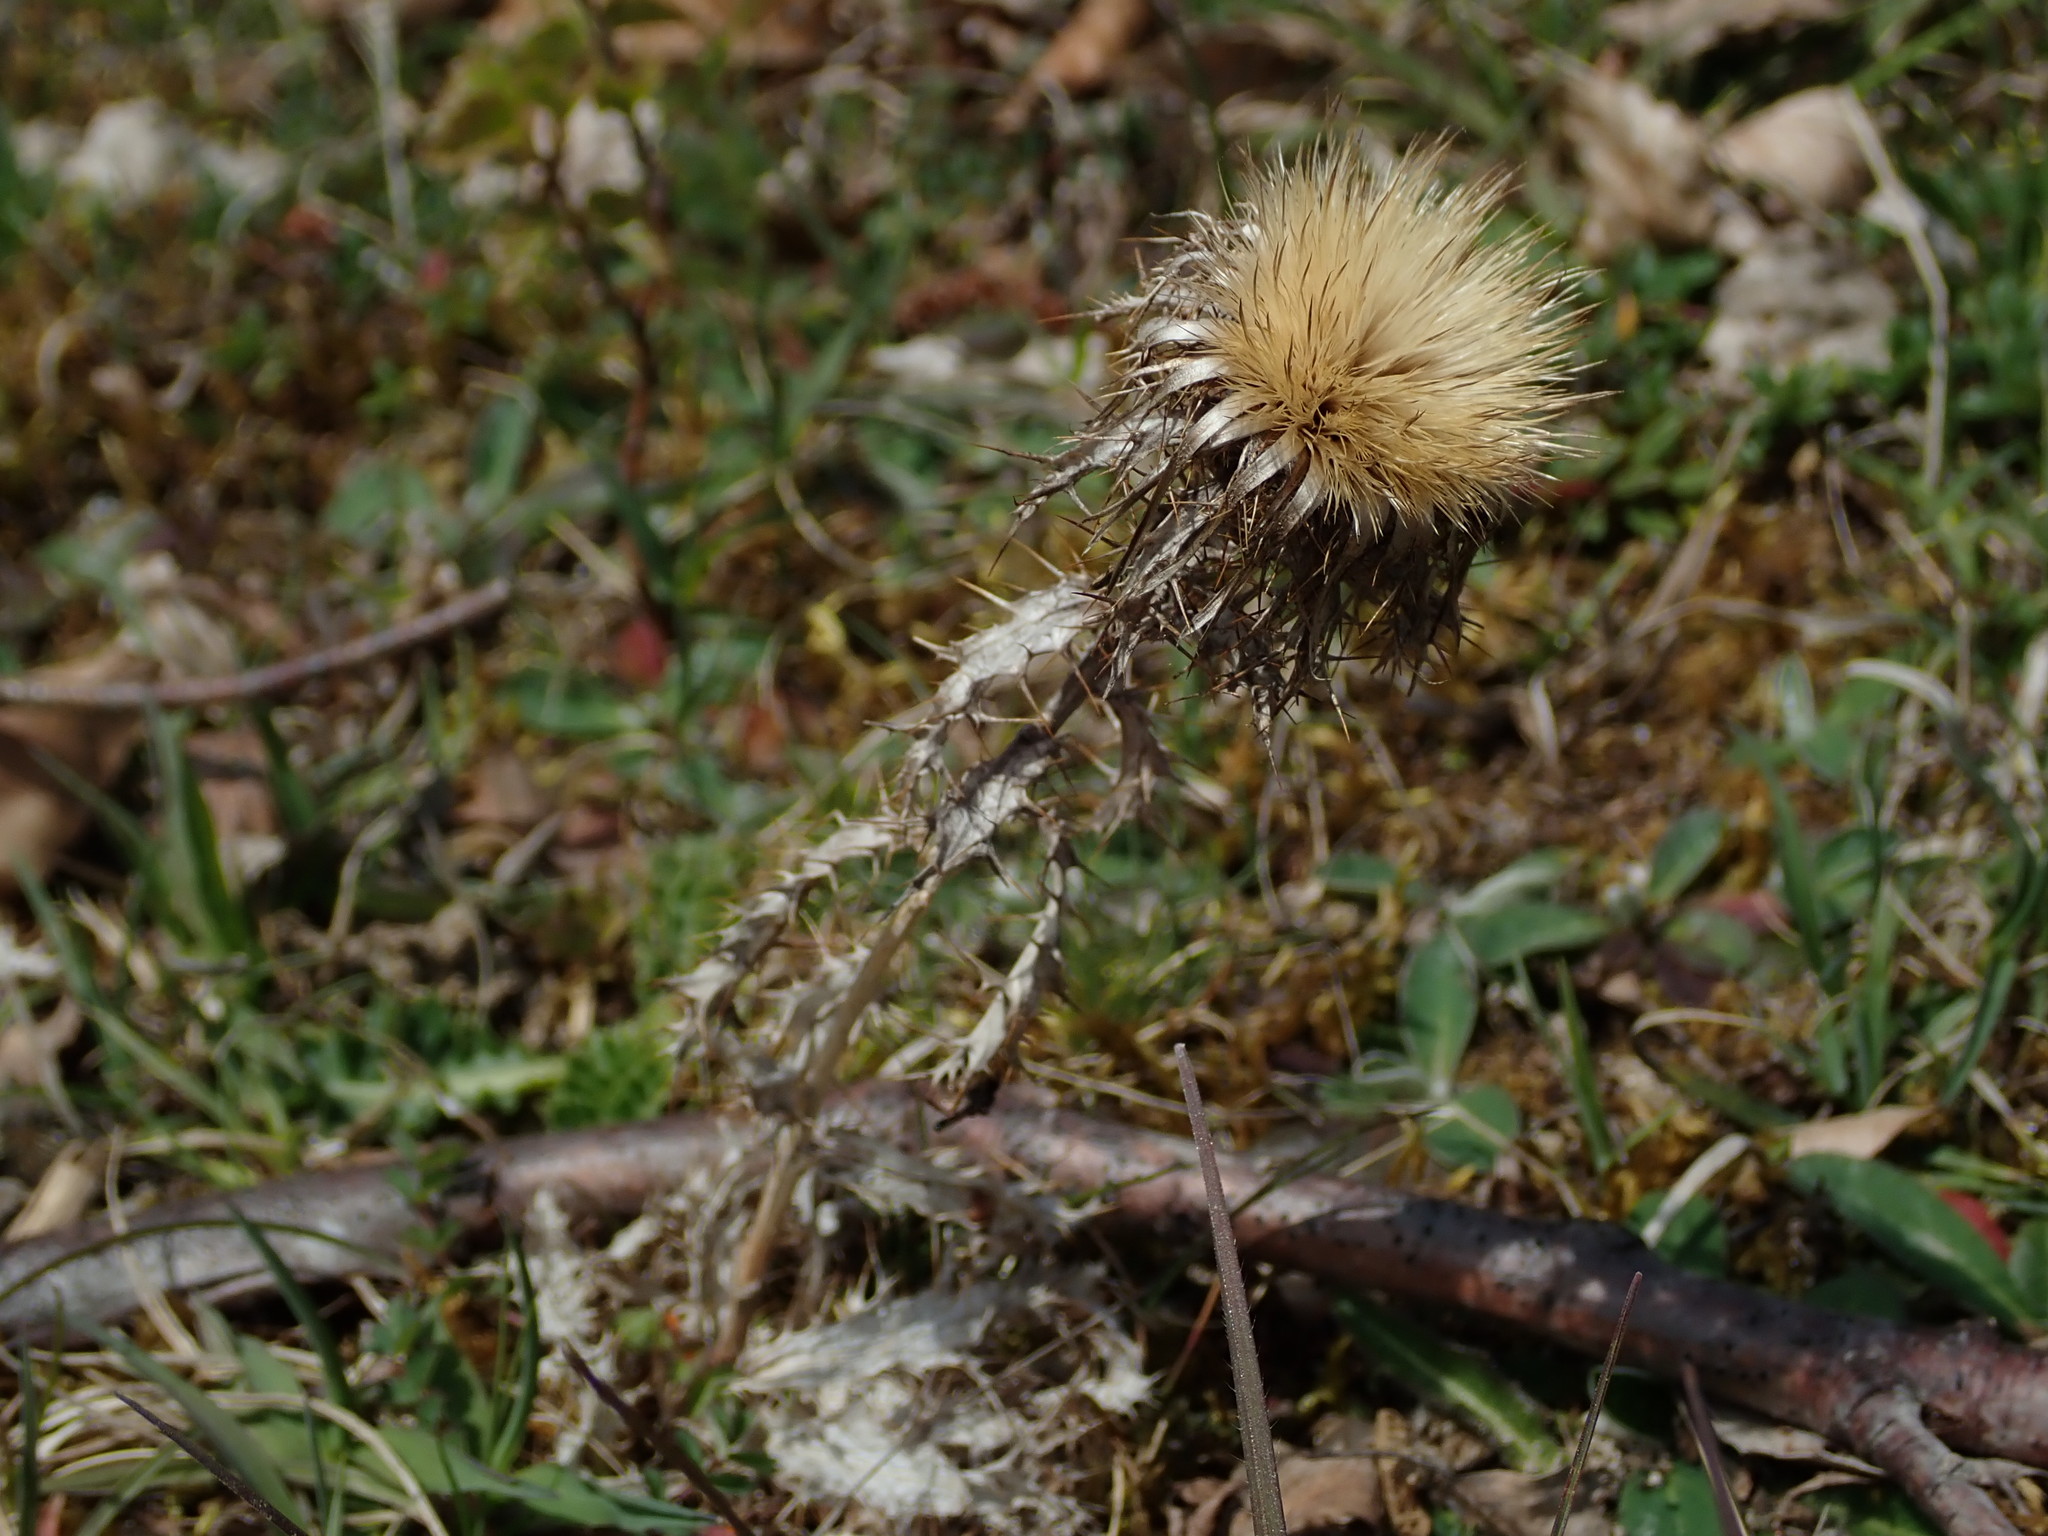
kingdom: Plantae
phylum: Tracheophyta
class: Magnoliopsida
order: Asterales
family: Asteraceae
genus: Carlina
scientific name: Carlina vulgaris
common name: Carline thistle
